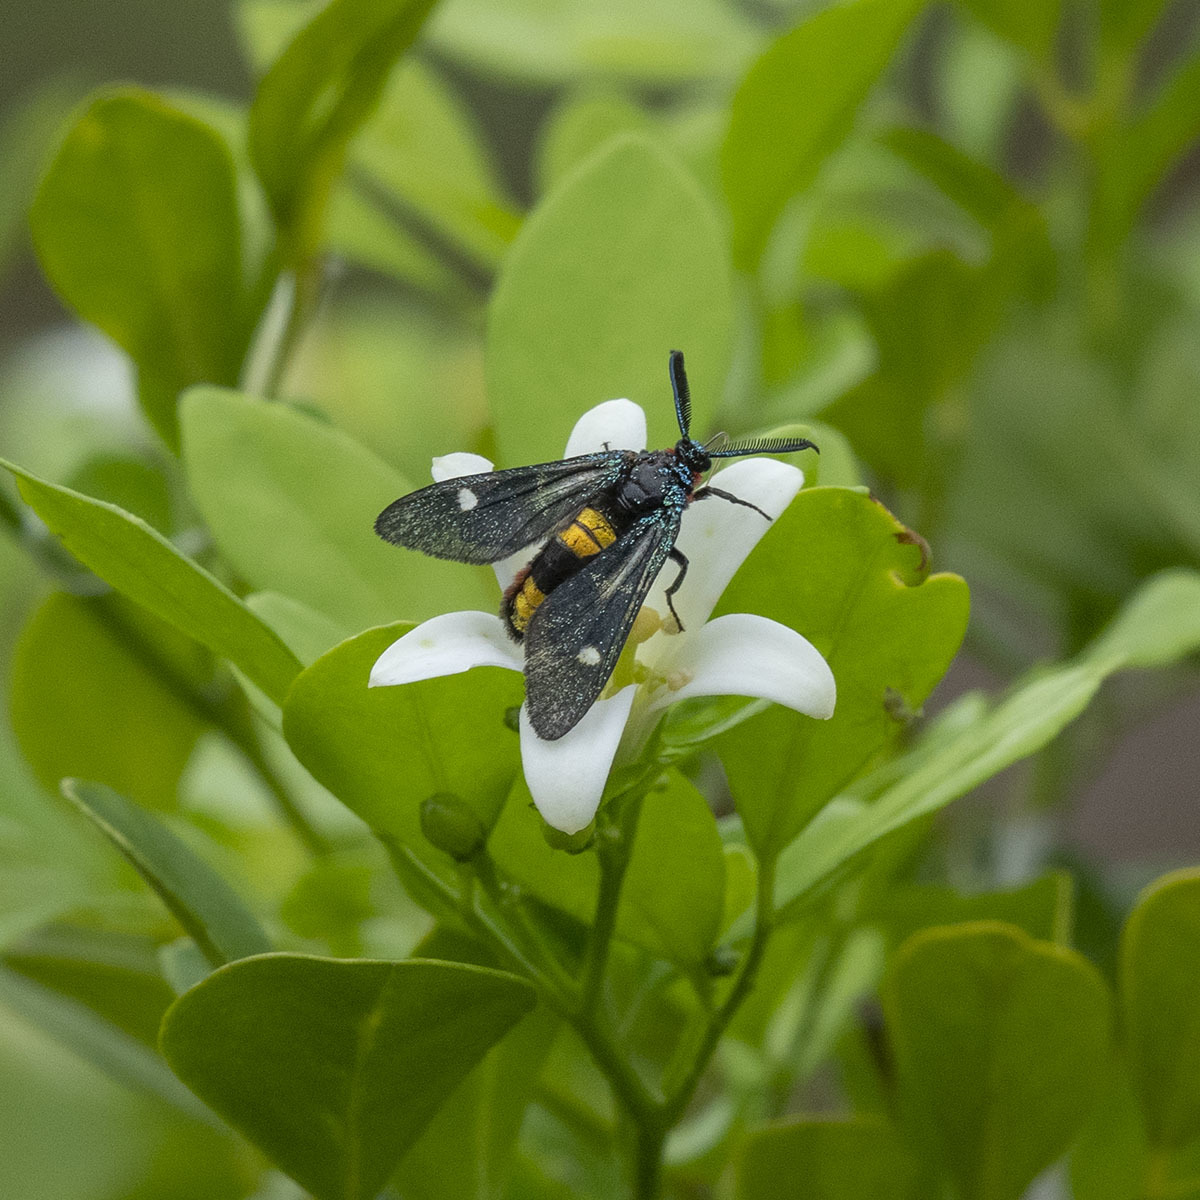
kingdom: Animalia
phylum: Arthropoda
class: Insecta
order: Lepidoptera
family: Zygaenidae
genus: Callizygaena
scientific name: Callizygaena auratus
